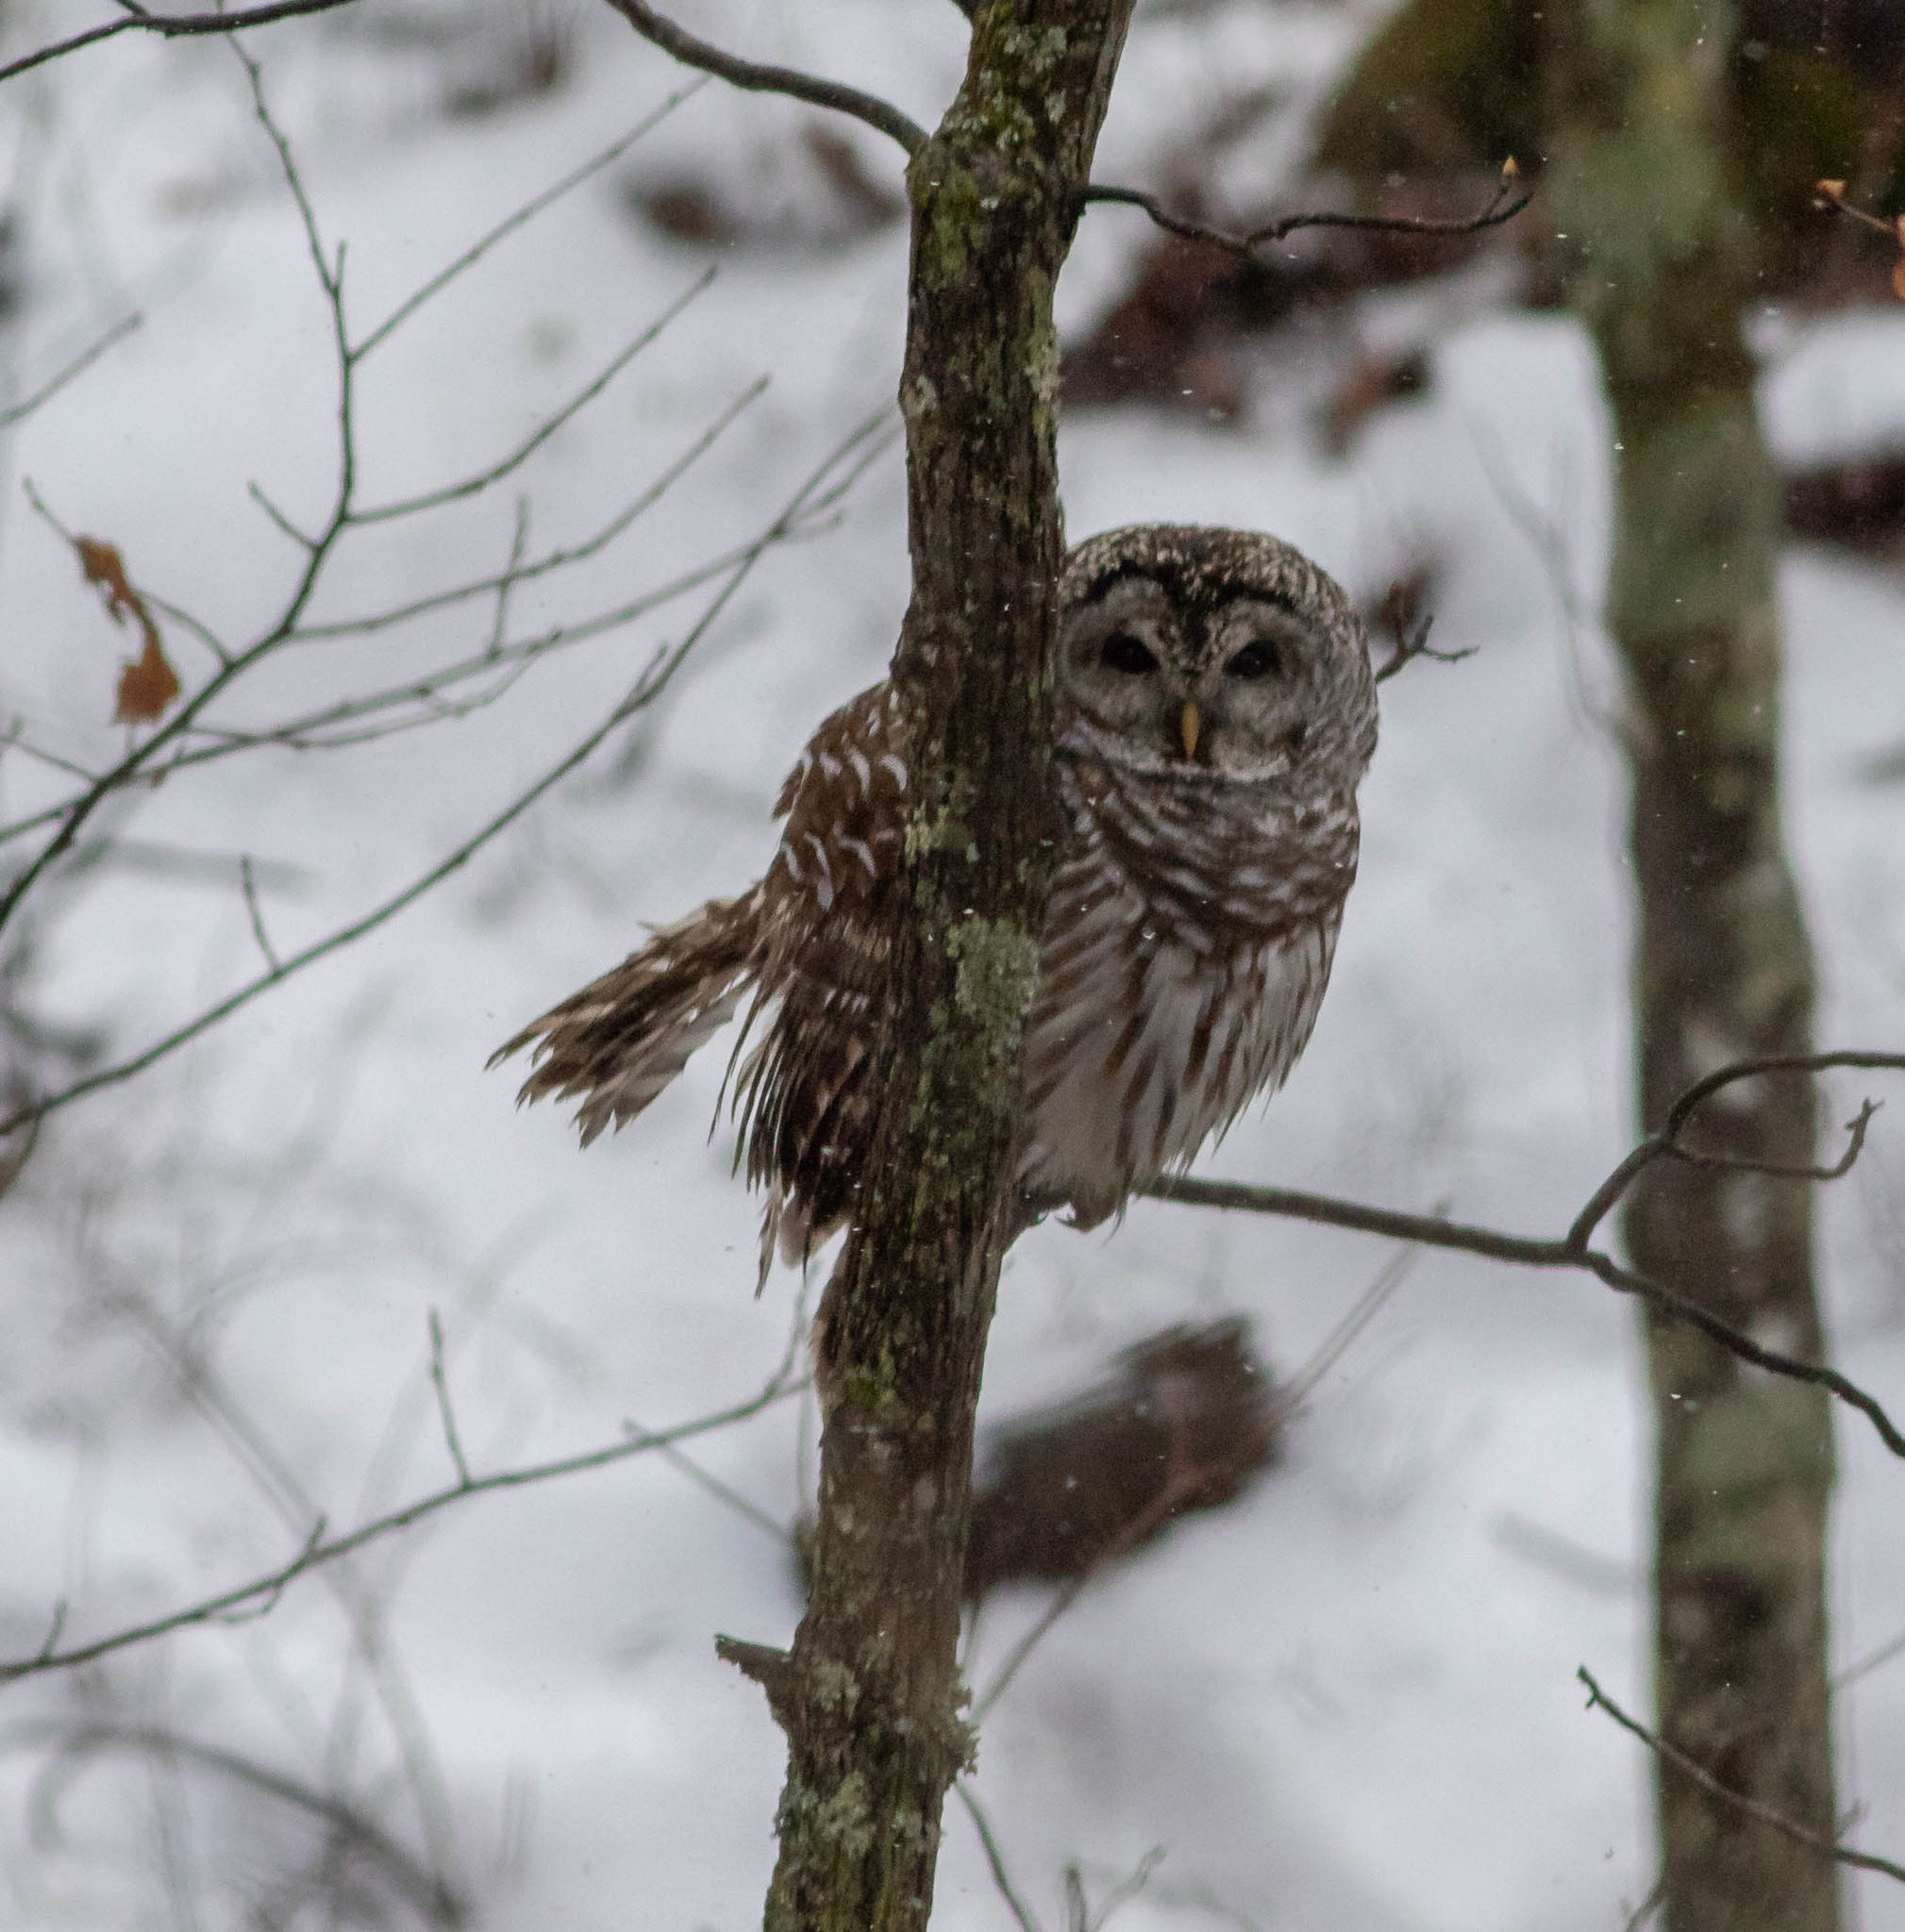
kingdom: Animalia
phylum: Chordata
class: Aves
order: Strigiformes
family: Strigidae
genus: Strix
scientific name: Strix varia
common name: Barred owl
